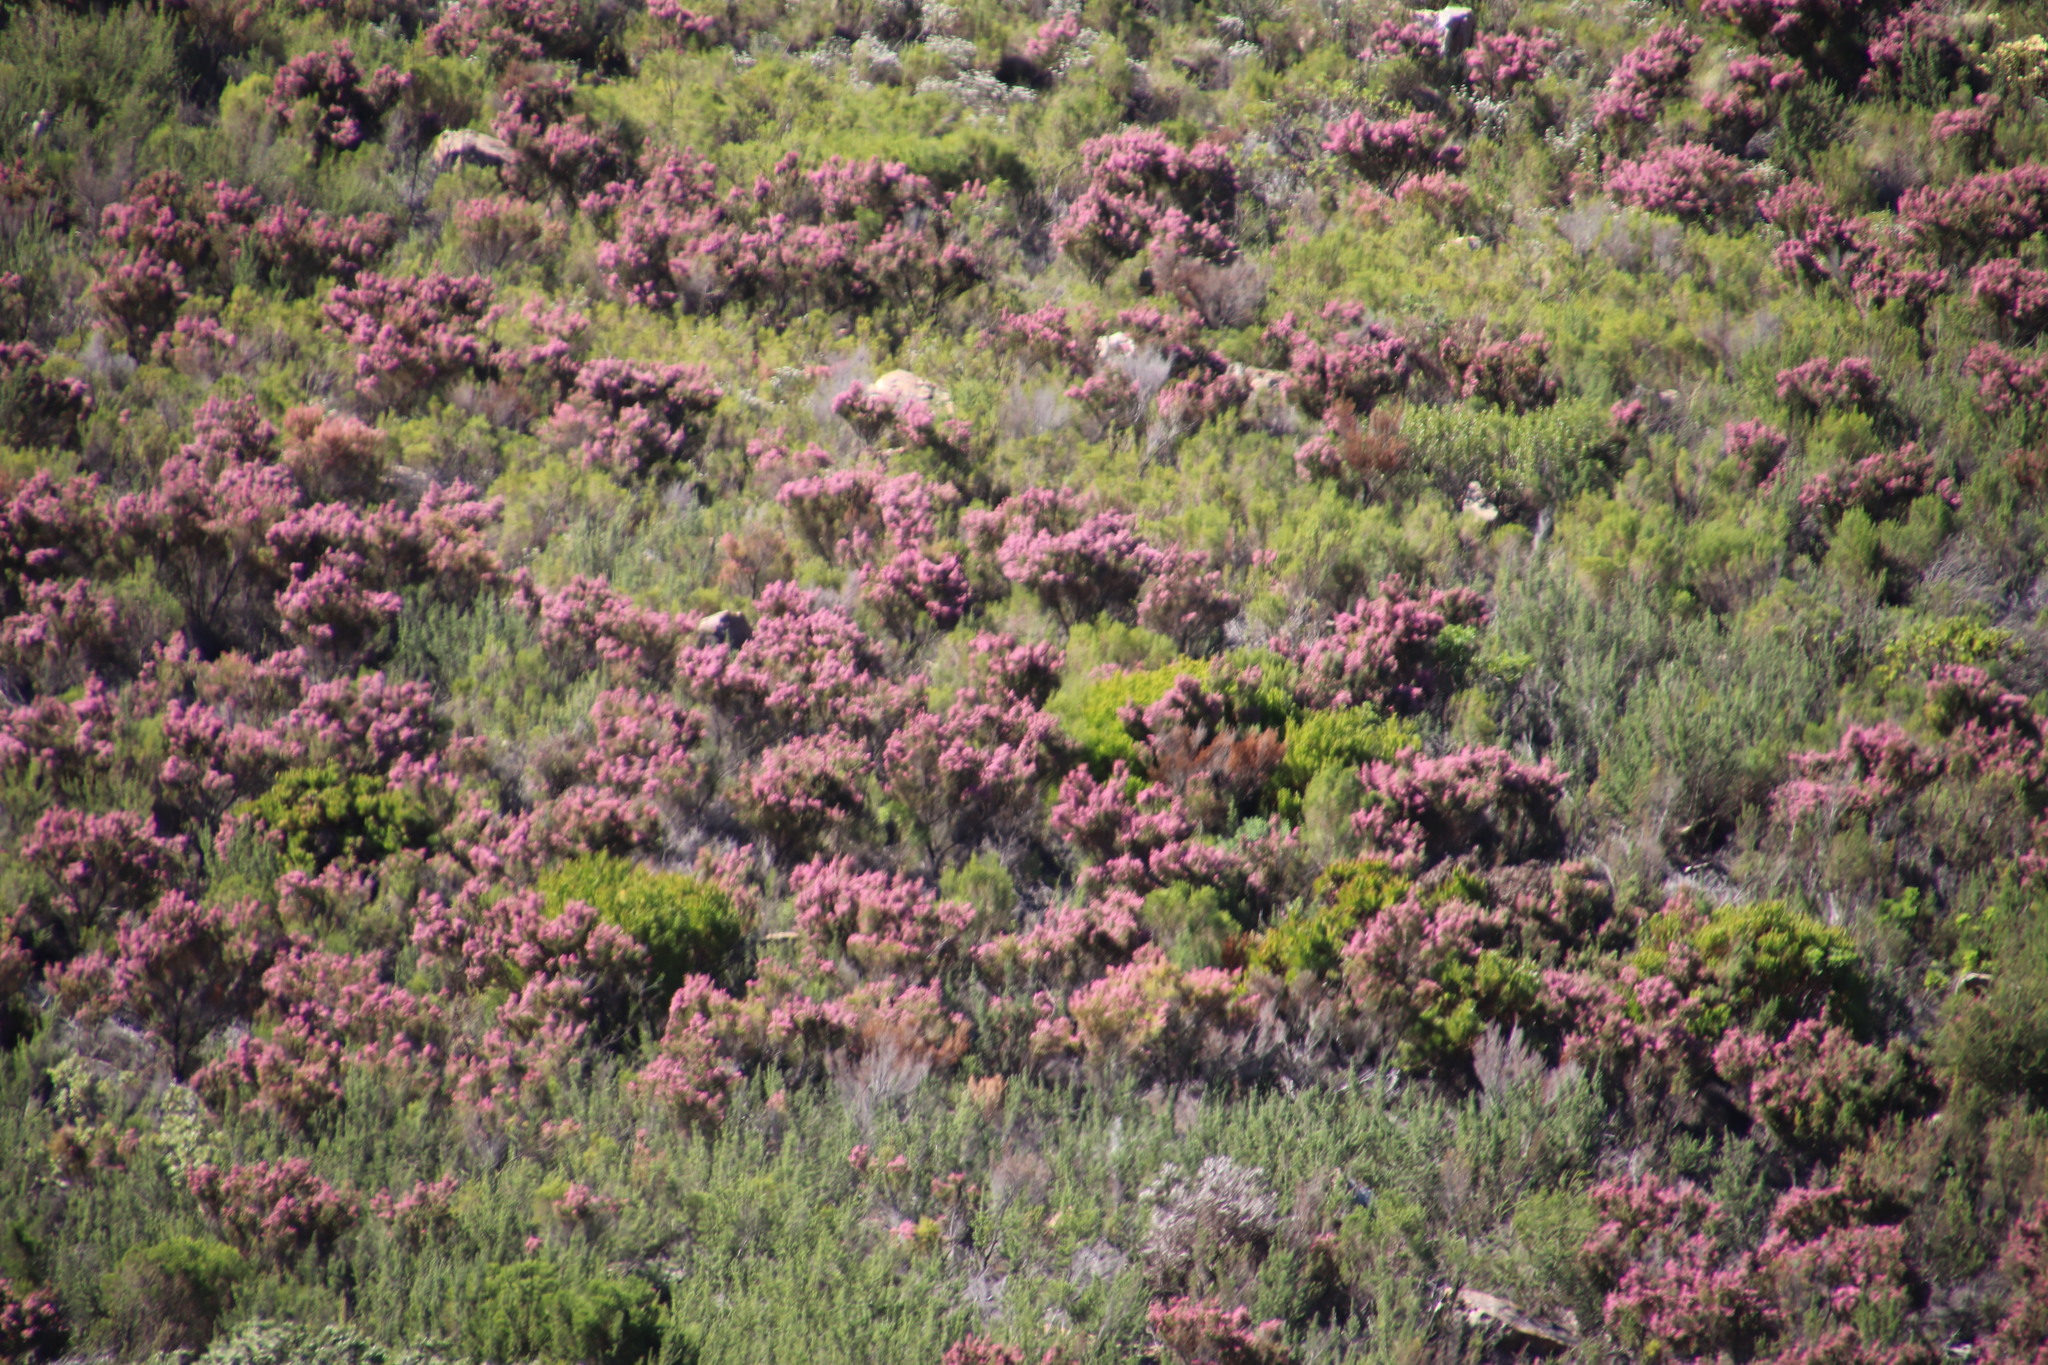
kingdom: Plantae
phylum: Tracheophyta
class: Magnoliopsida
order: Ericales
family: Ericaceae
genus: Erica
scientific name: Erica baccans
